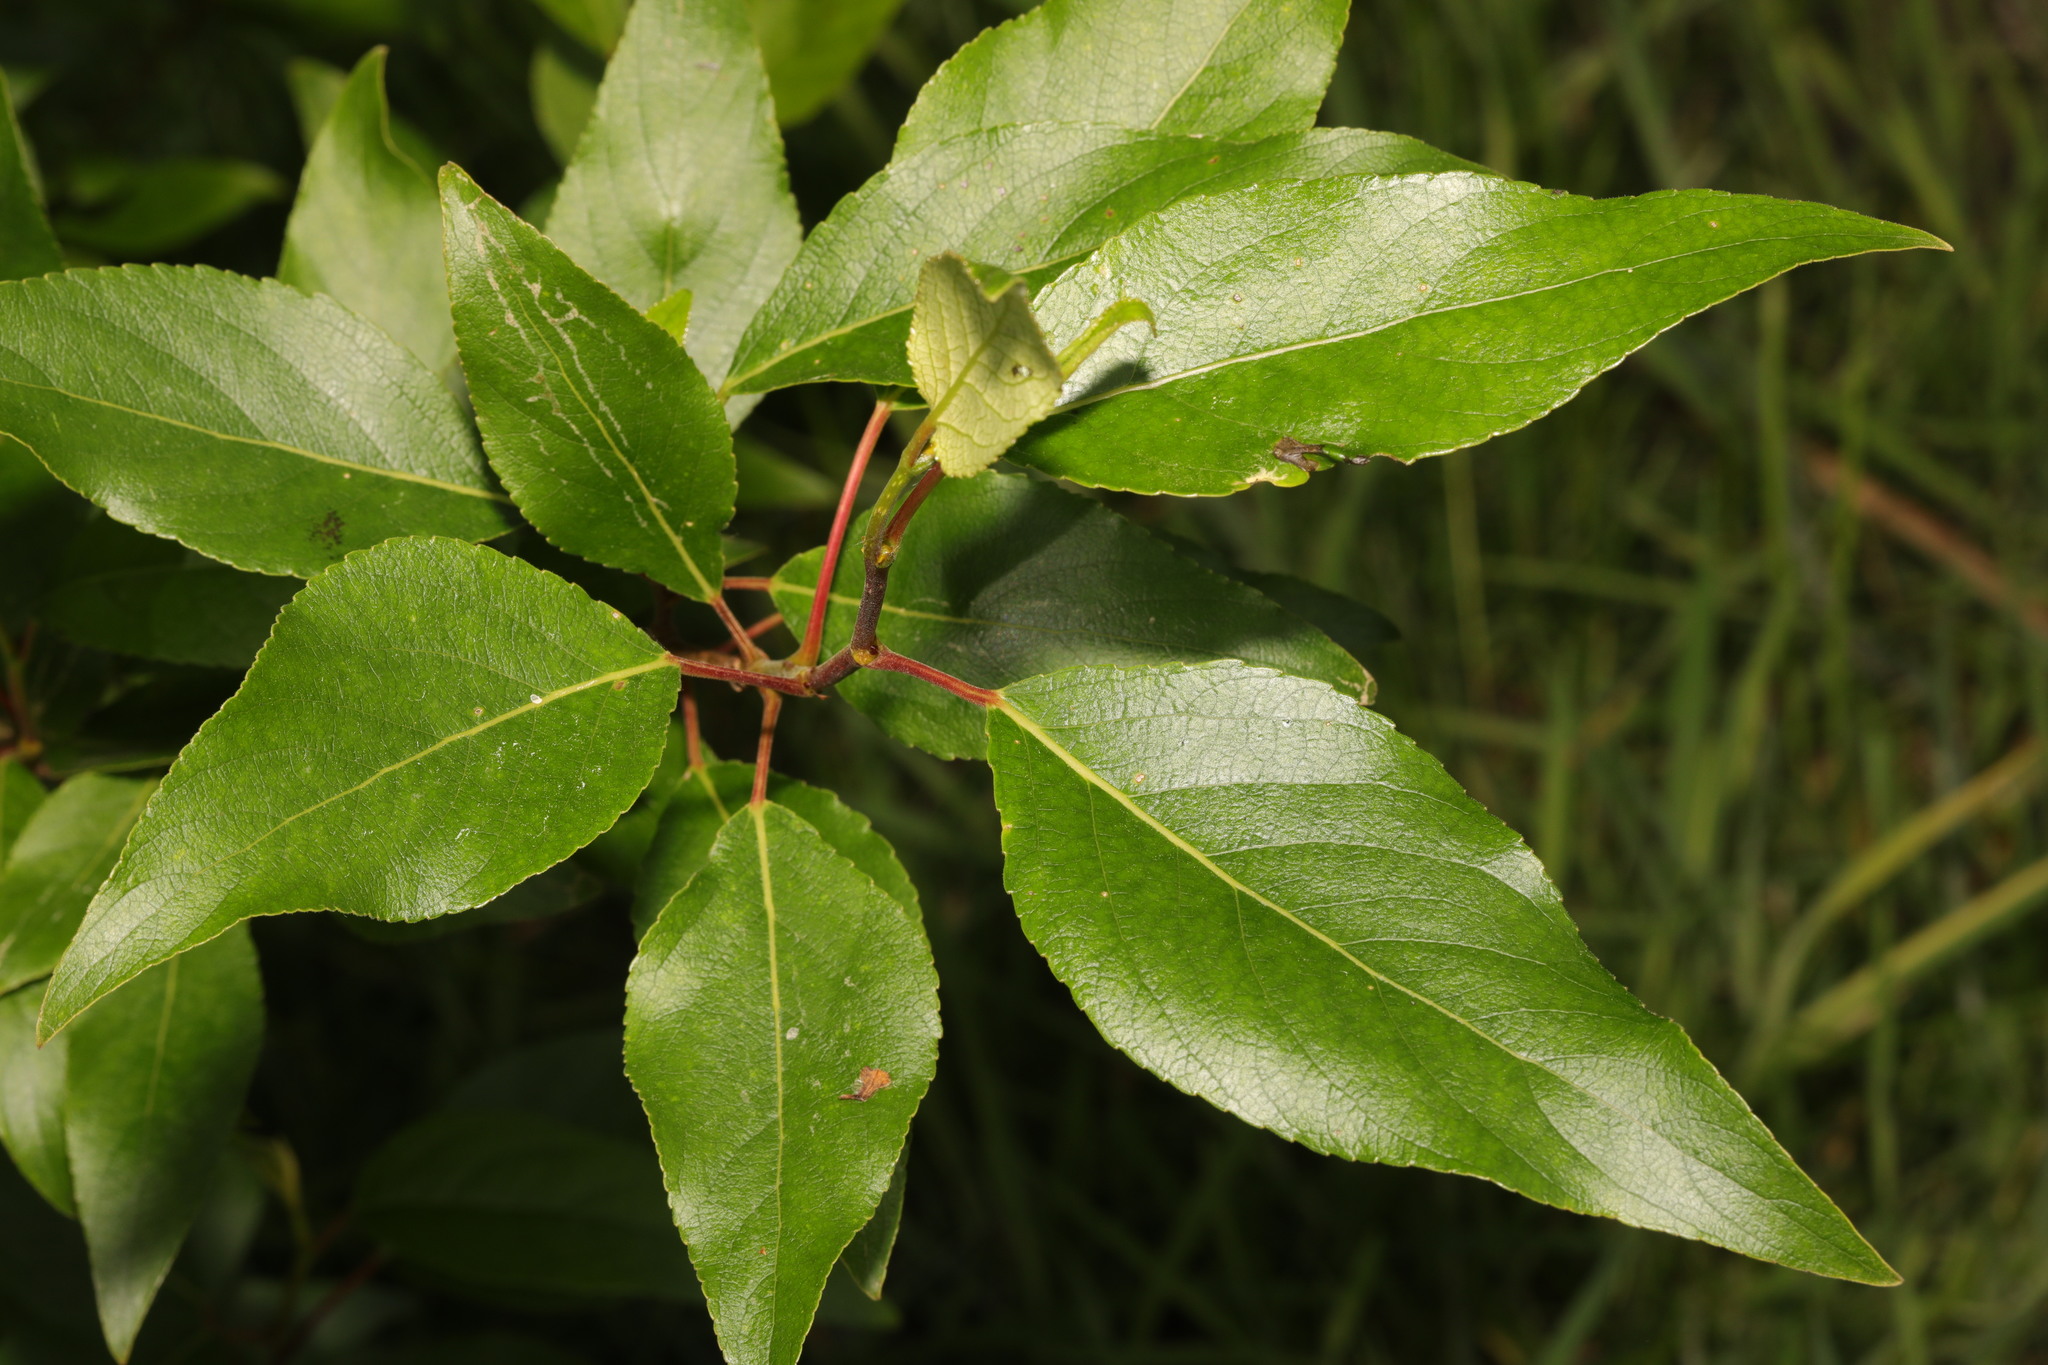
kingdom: Plantae
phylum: Tracheophyta
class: Magnoliopsida
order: Malpighiales
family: Salicaceae
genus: Populus
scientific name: Populus trichocarpa
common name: Black cottonwood
